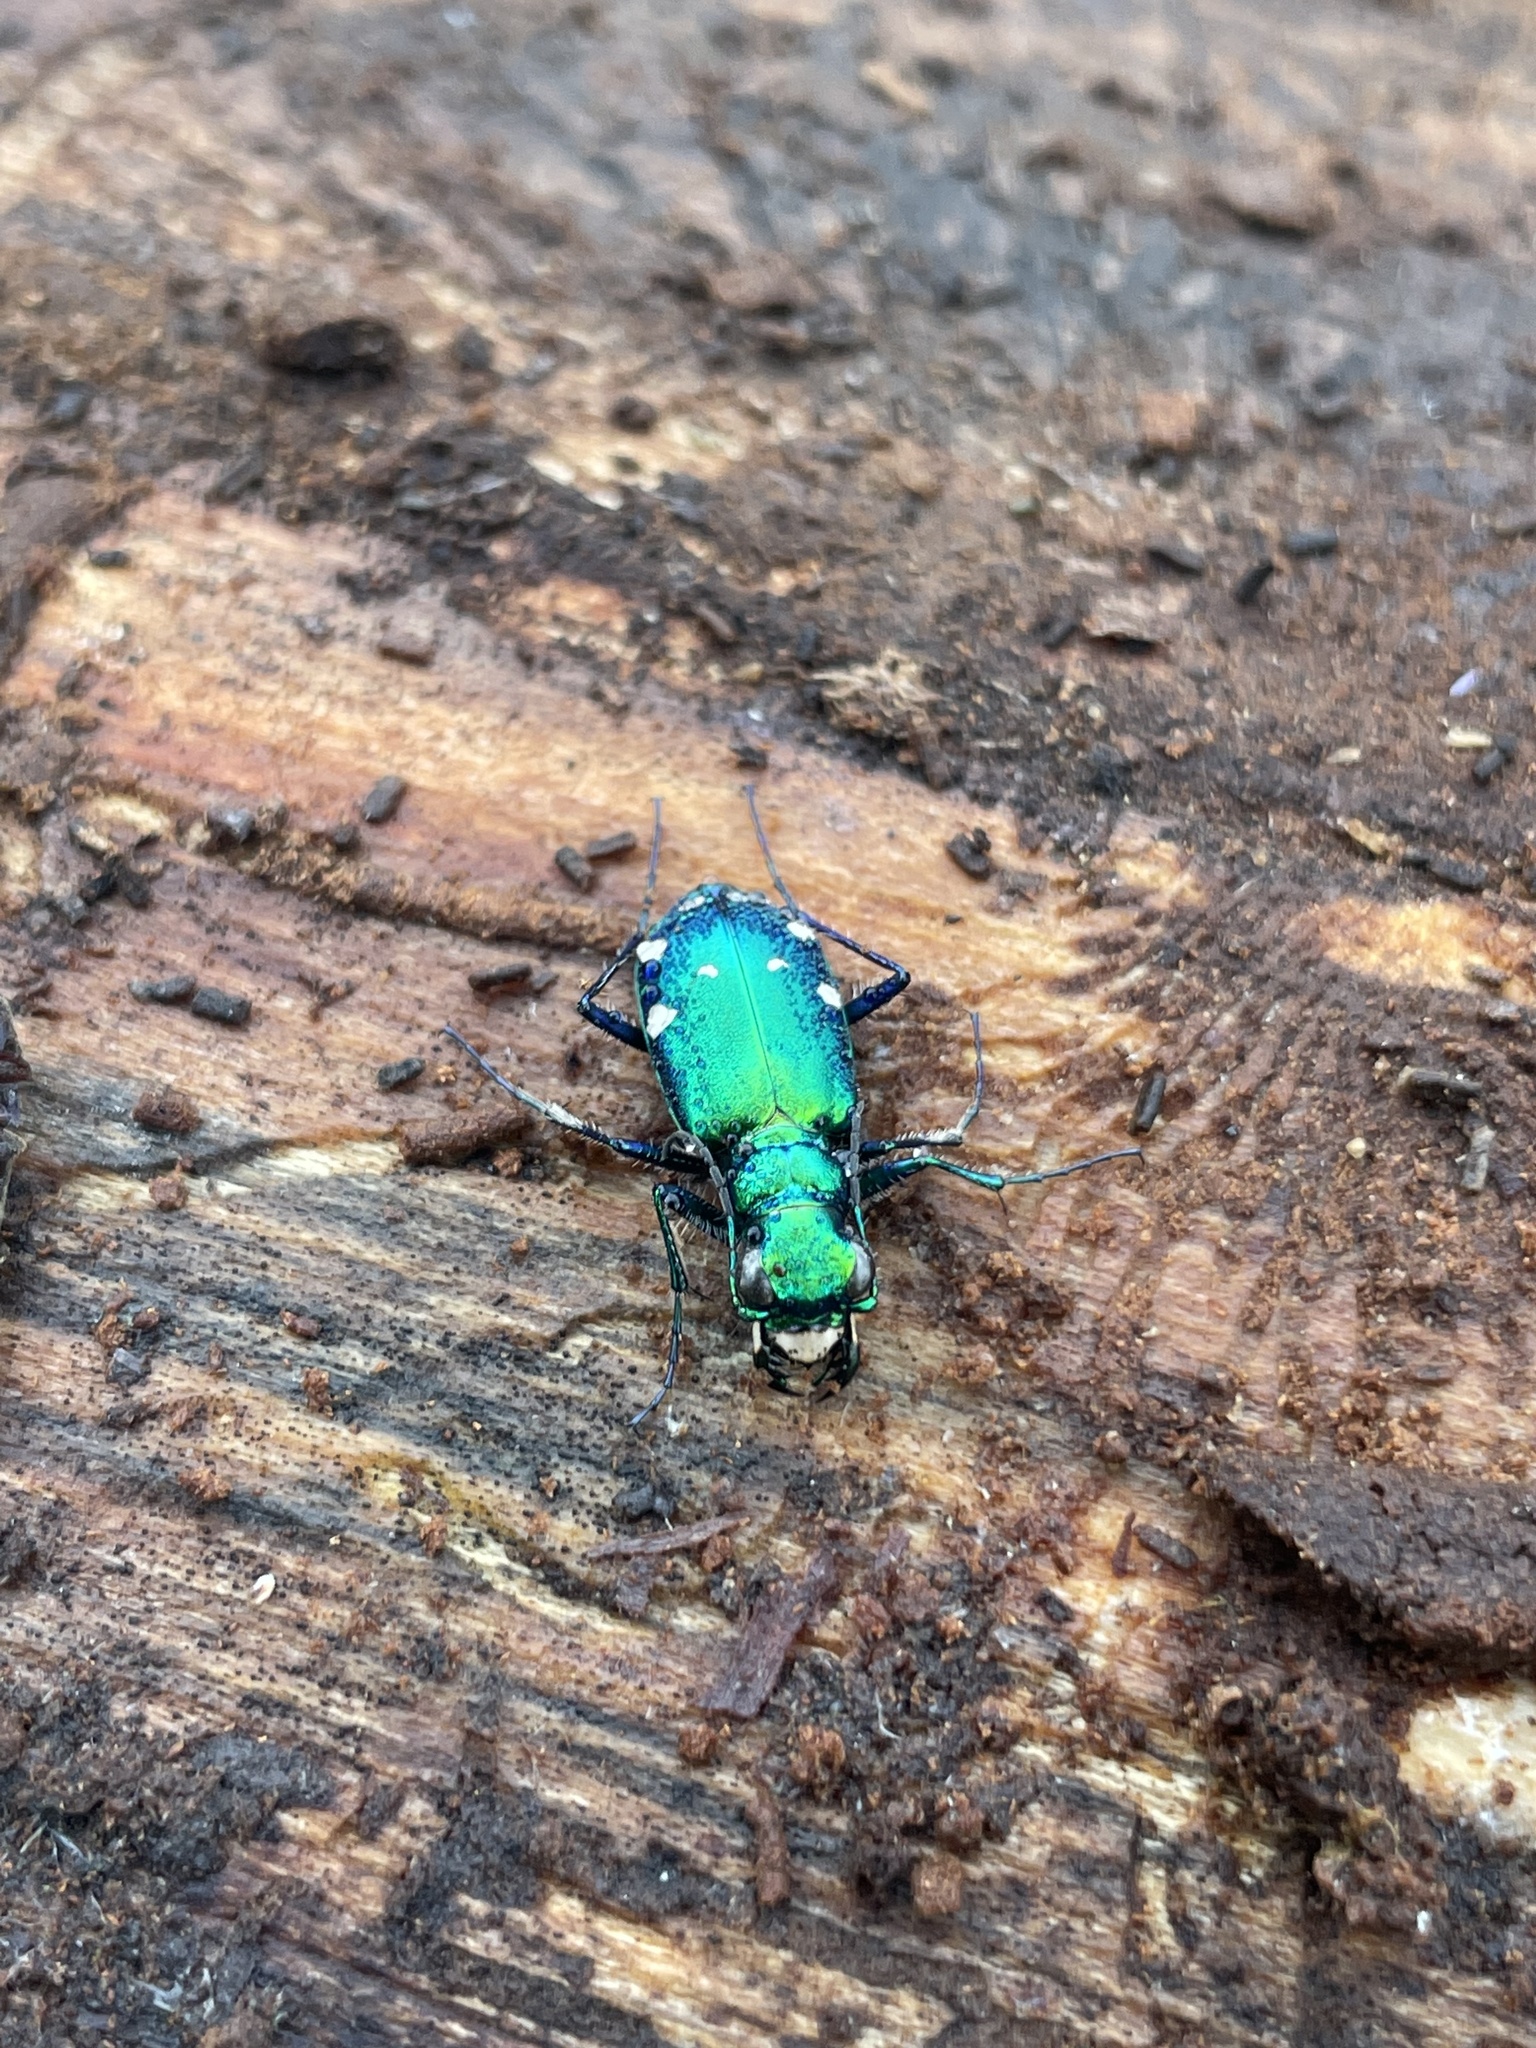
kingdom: Animalia
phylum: Arthropoda
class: Insecta
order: Coleoptera
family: Carabidae
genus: Cicindela
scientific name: Cicindela sexguttata
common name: Six-spotted tiger beetle
